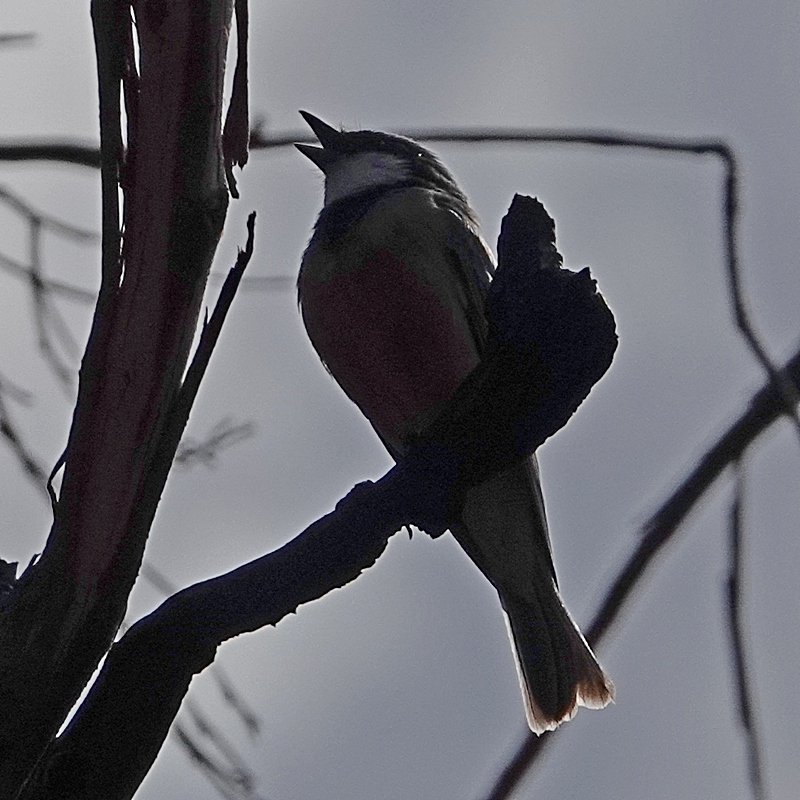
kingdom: Animalia
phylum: Chordata
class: Aves
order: Passeriformes
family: Pachycephalidae
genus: Pachycephala
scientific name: Pachycephala rufiventris
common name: Rufous whistler
